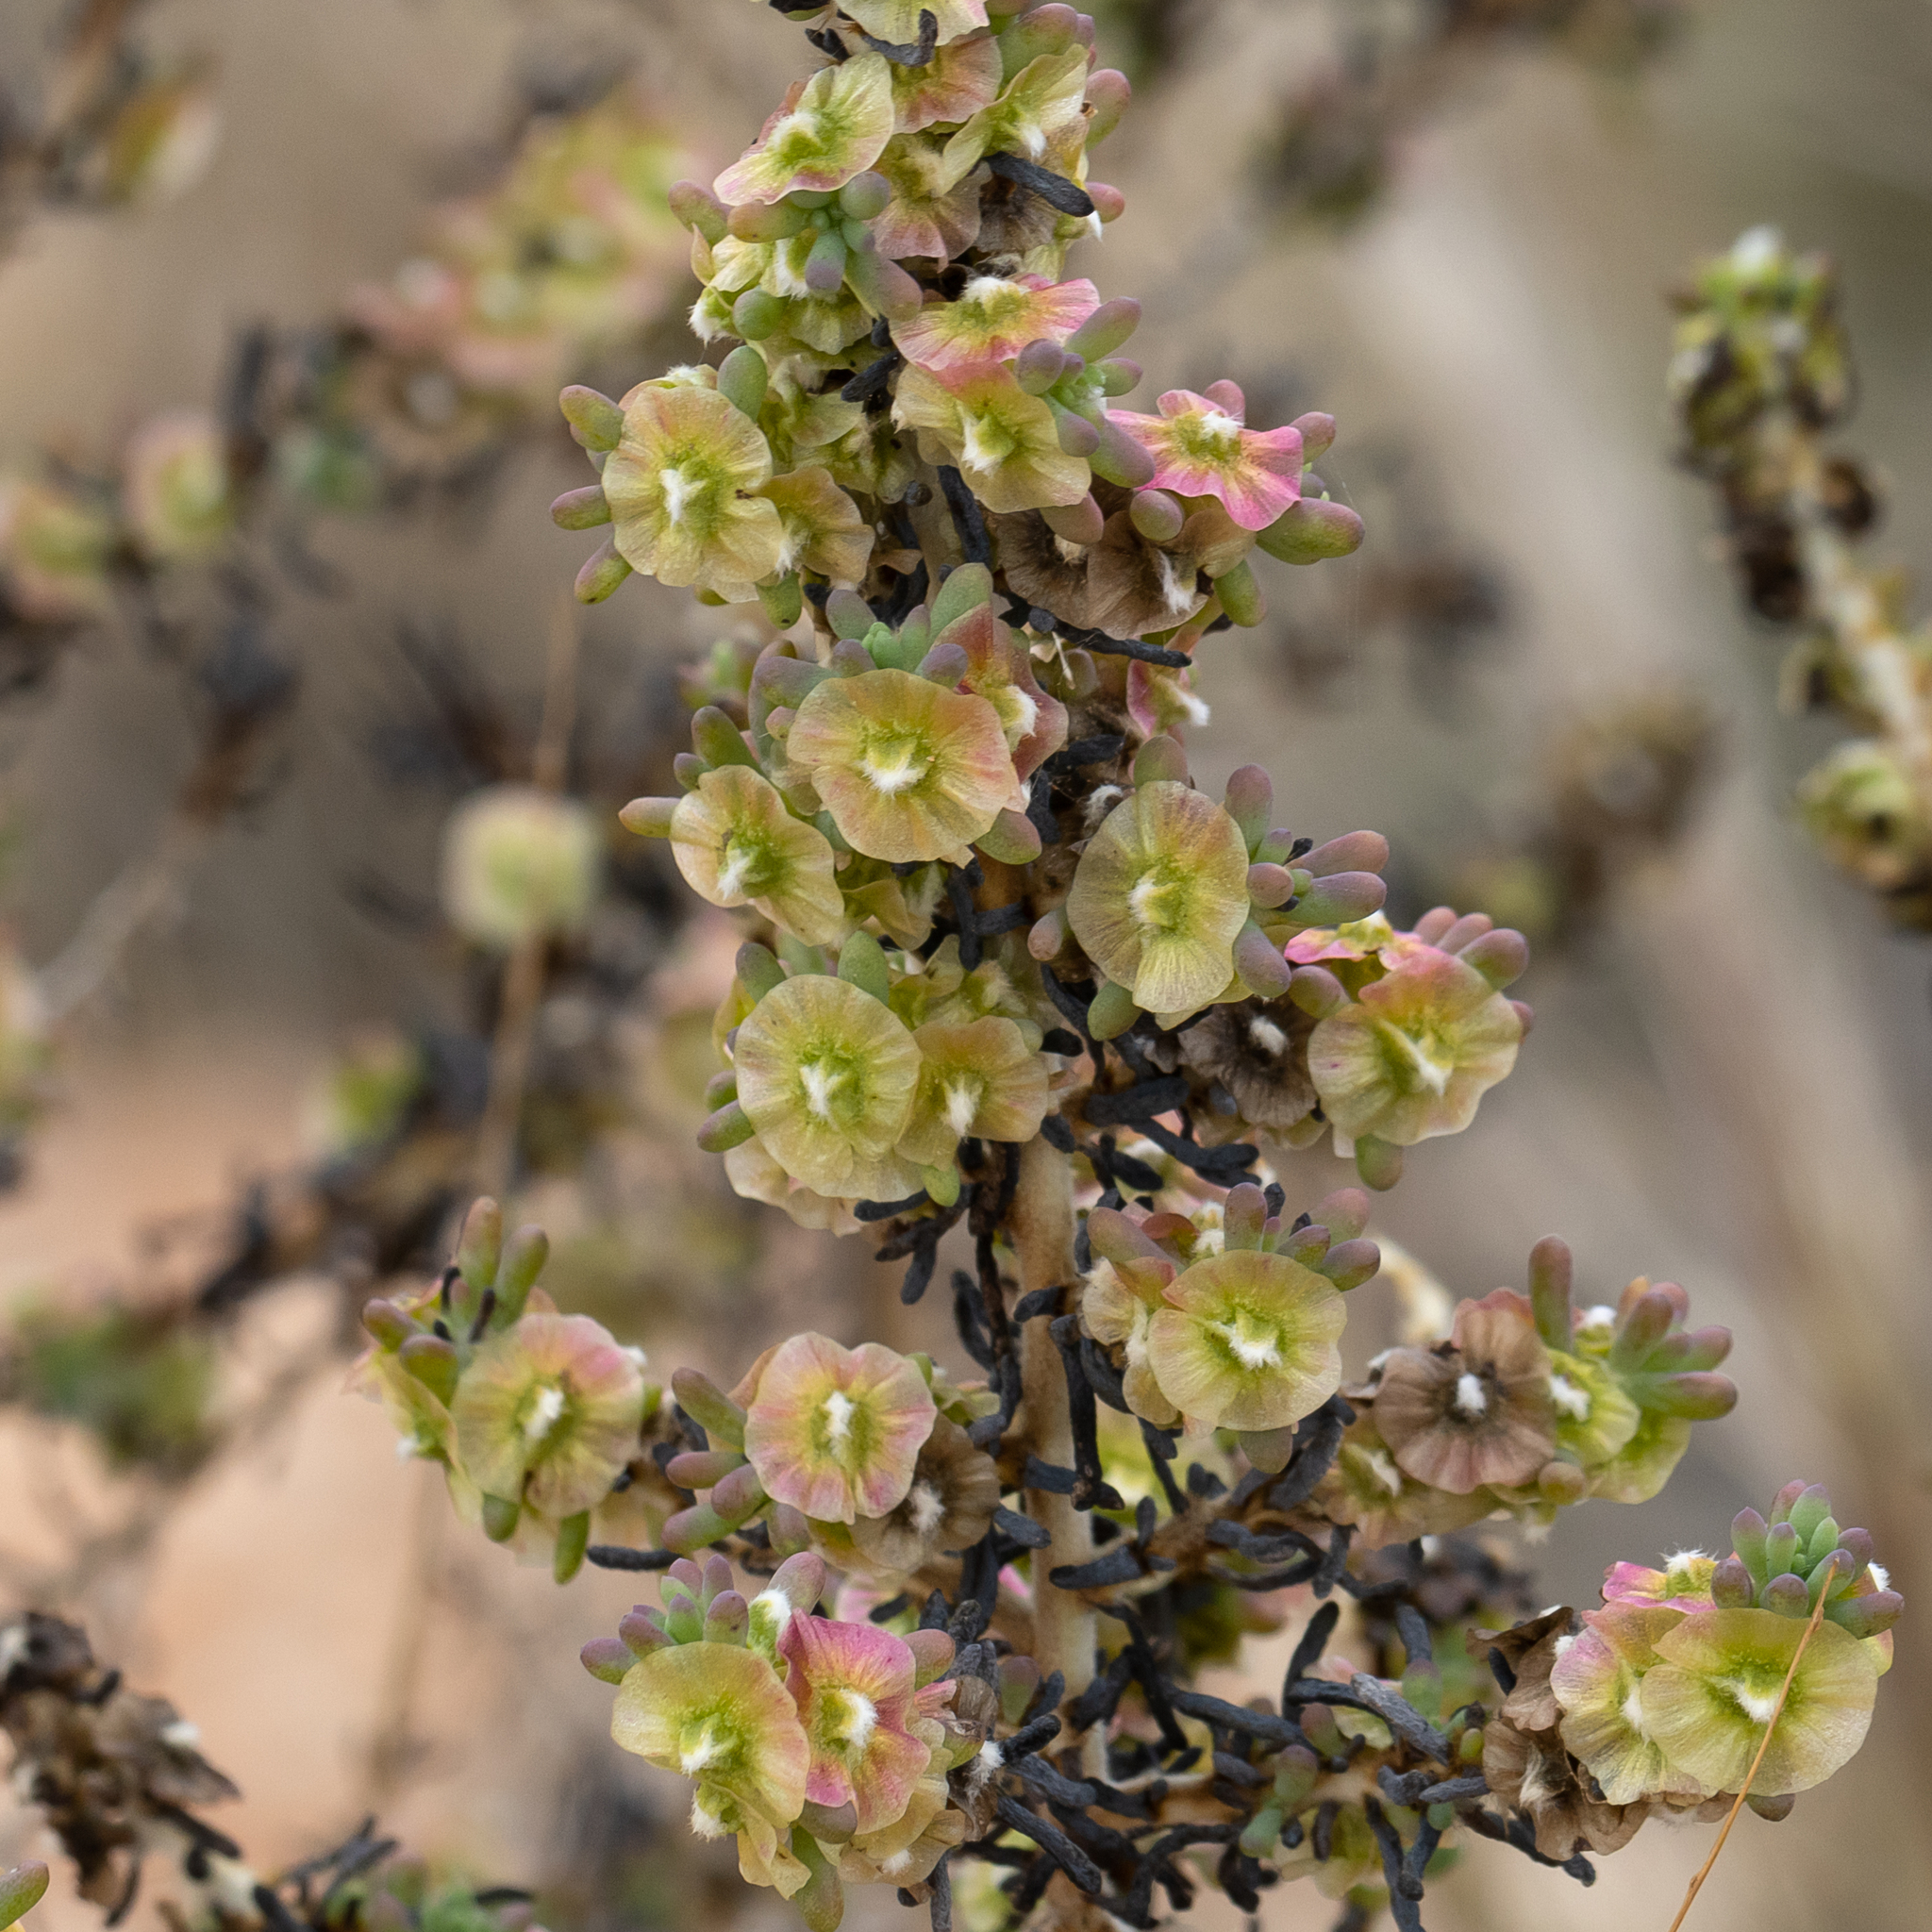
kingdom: Plantae
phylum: Tracheophyta
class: Magnoliopsida
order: Caryophyllales
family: Amaranthaceae
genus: Maireana
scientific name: Maireana pentatropis
